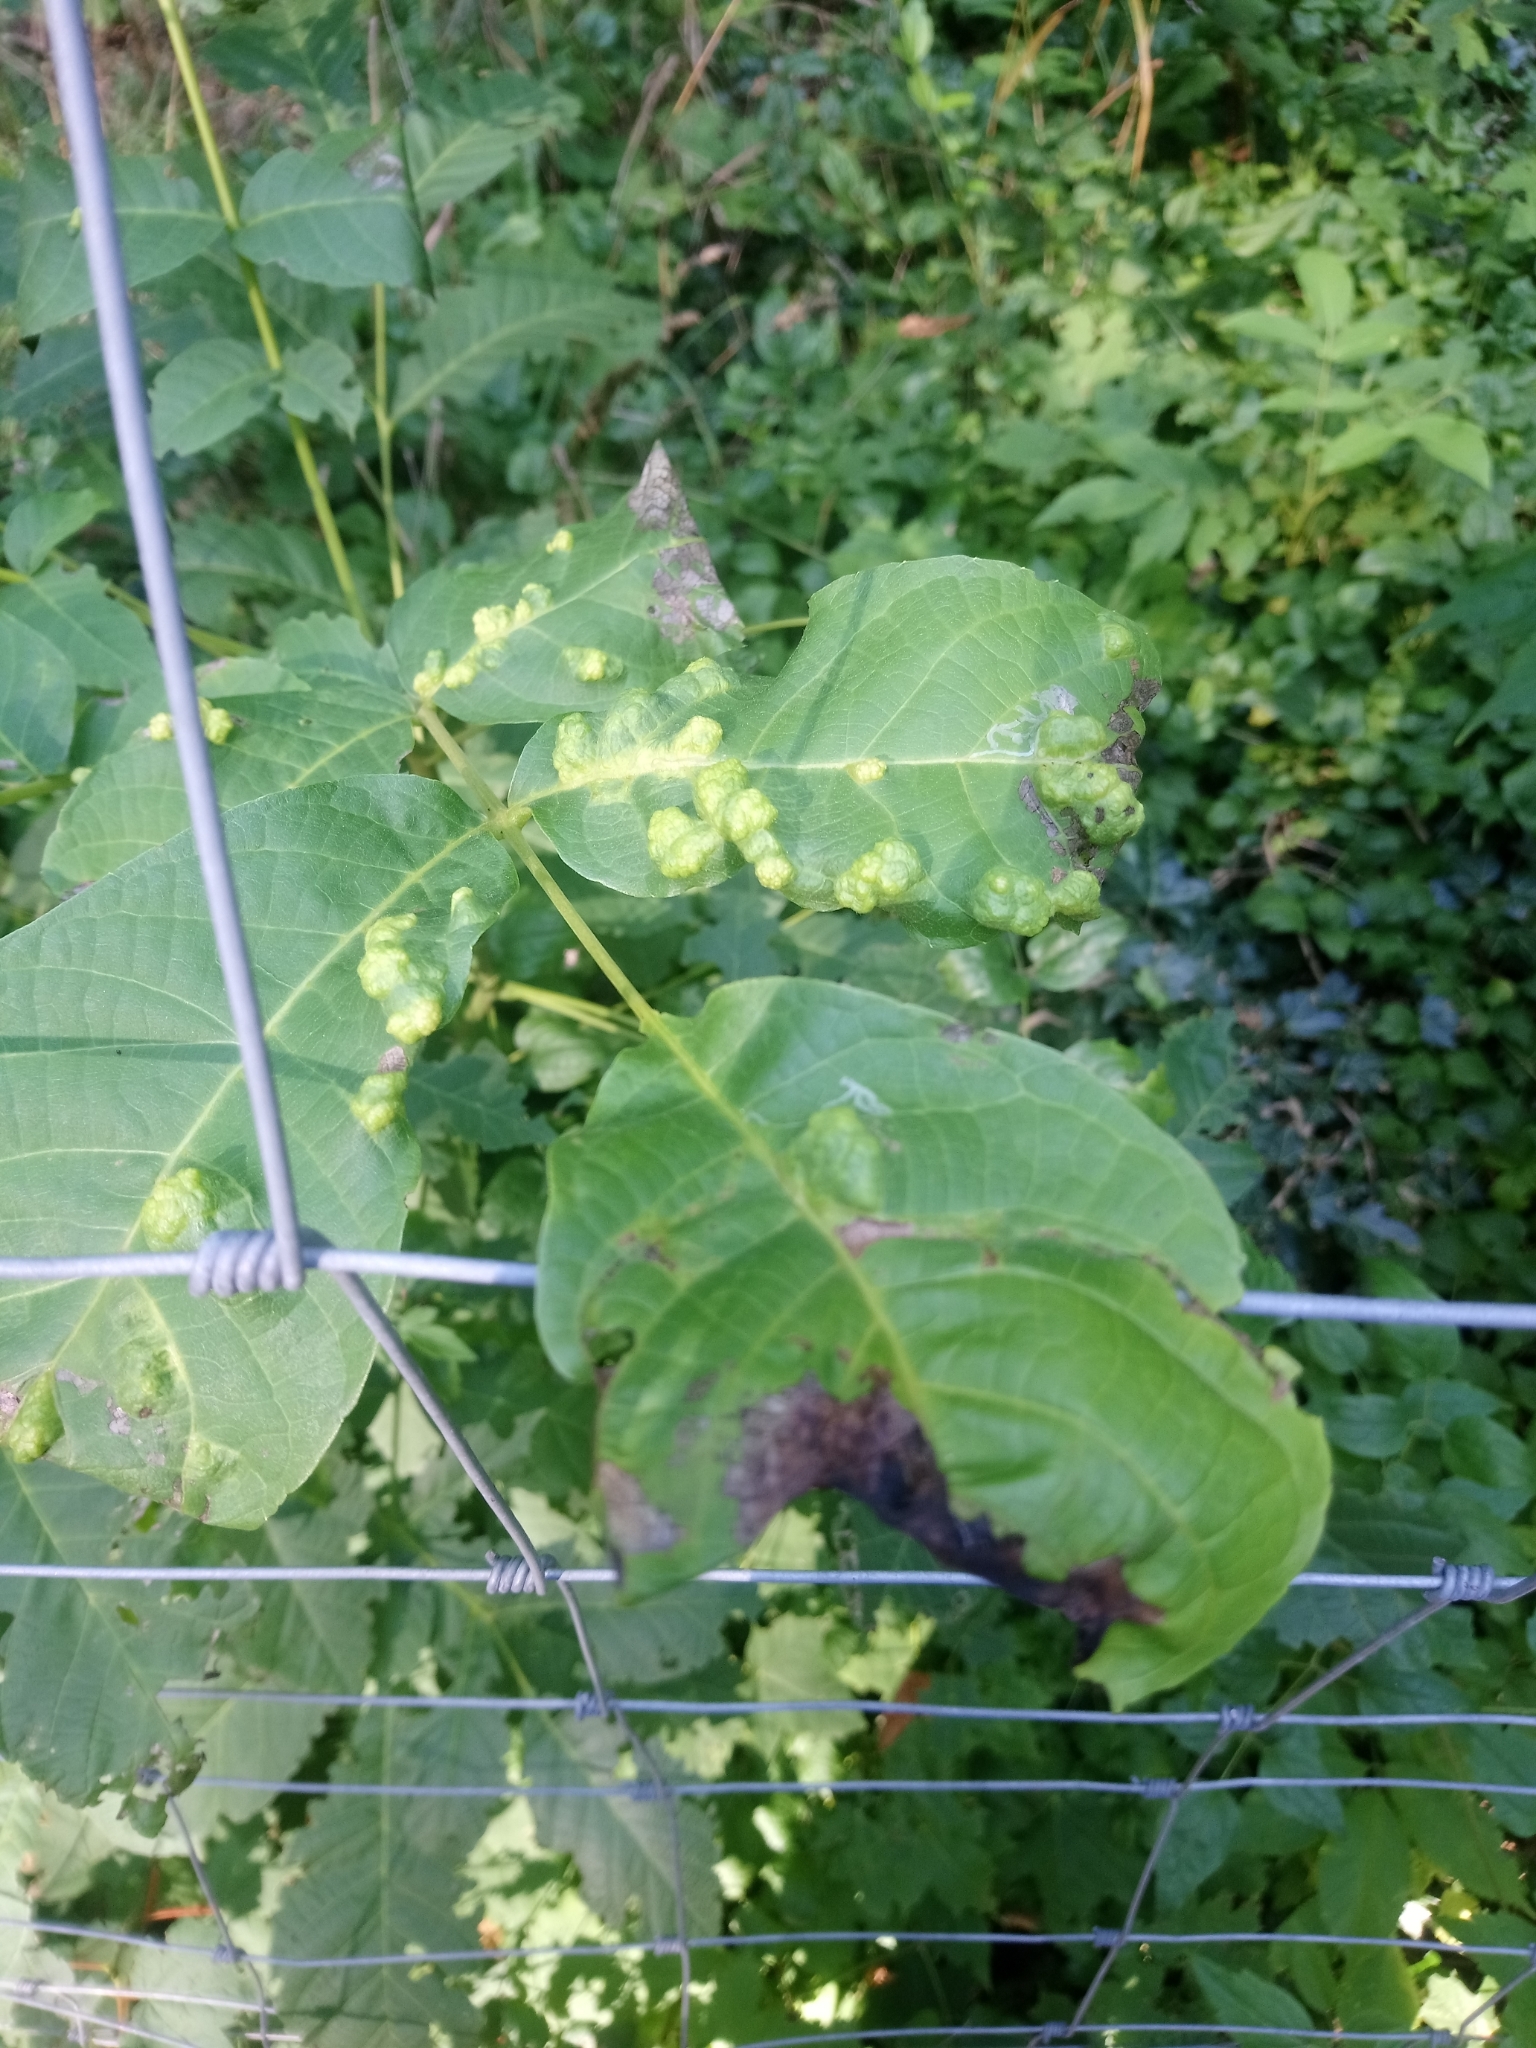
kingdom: Animalia
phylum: Arthropoda
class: Arachnida
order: Trombidiformes
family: Eriophyidae
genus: Aceria
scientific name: Aceria erinea
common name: Persian walnut erineum mite
